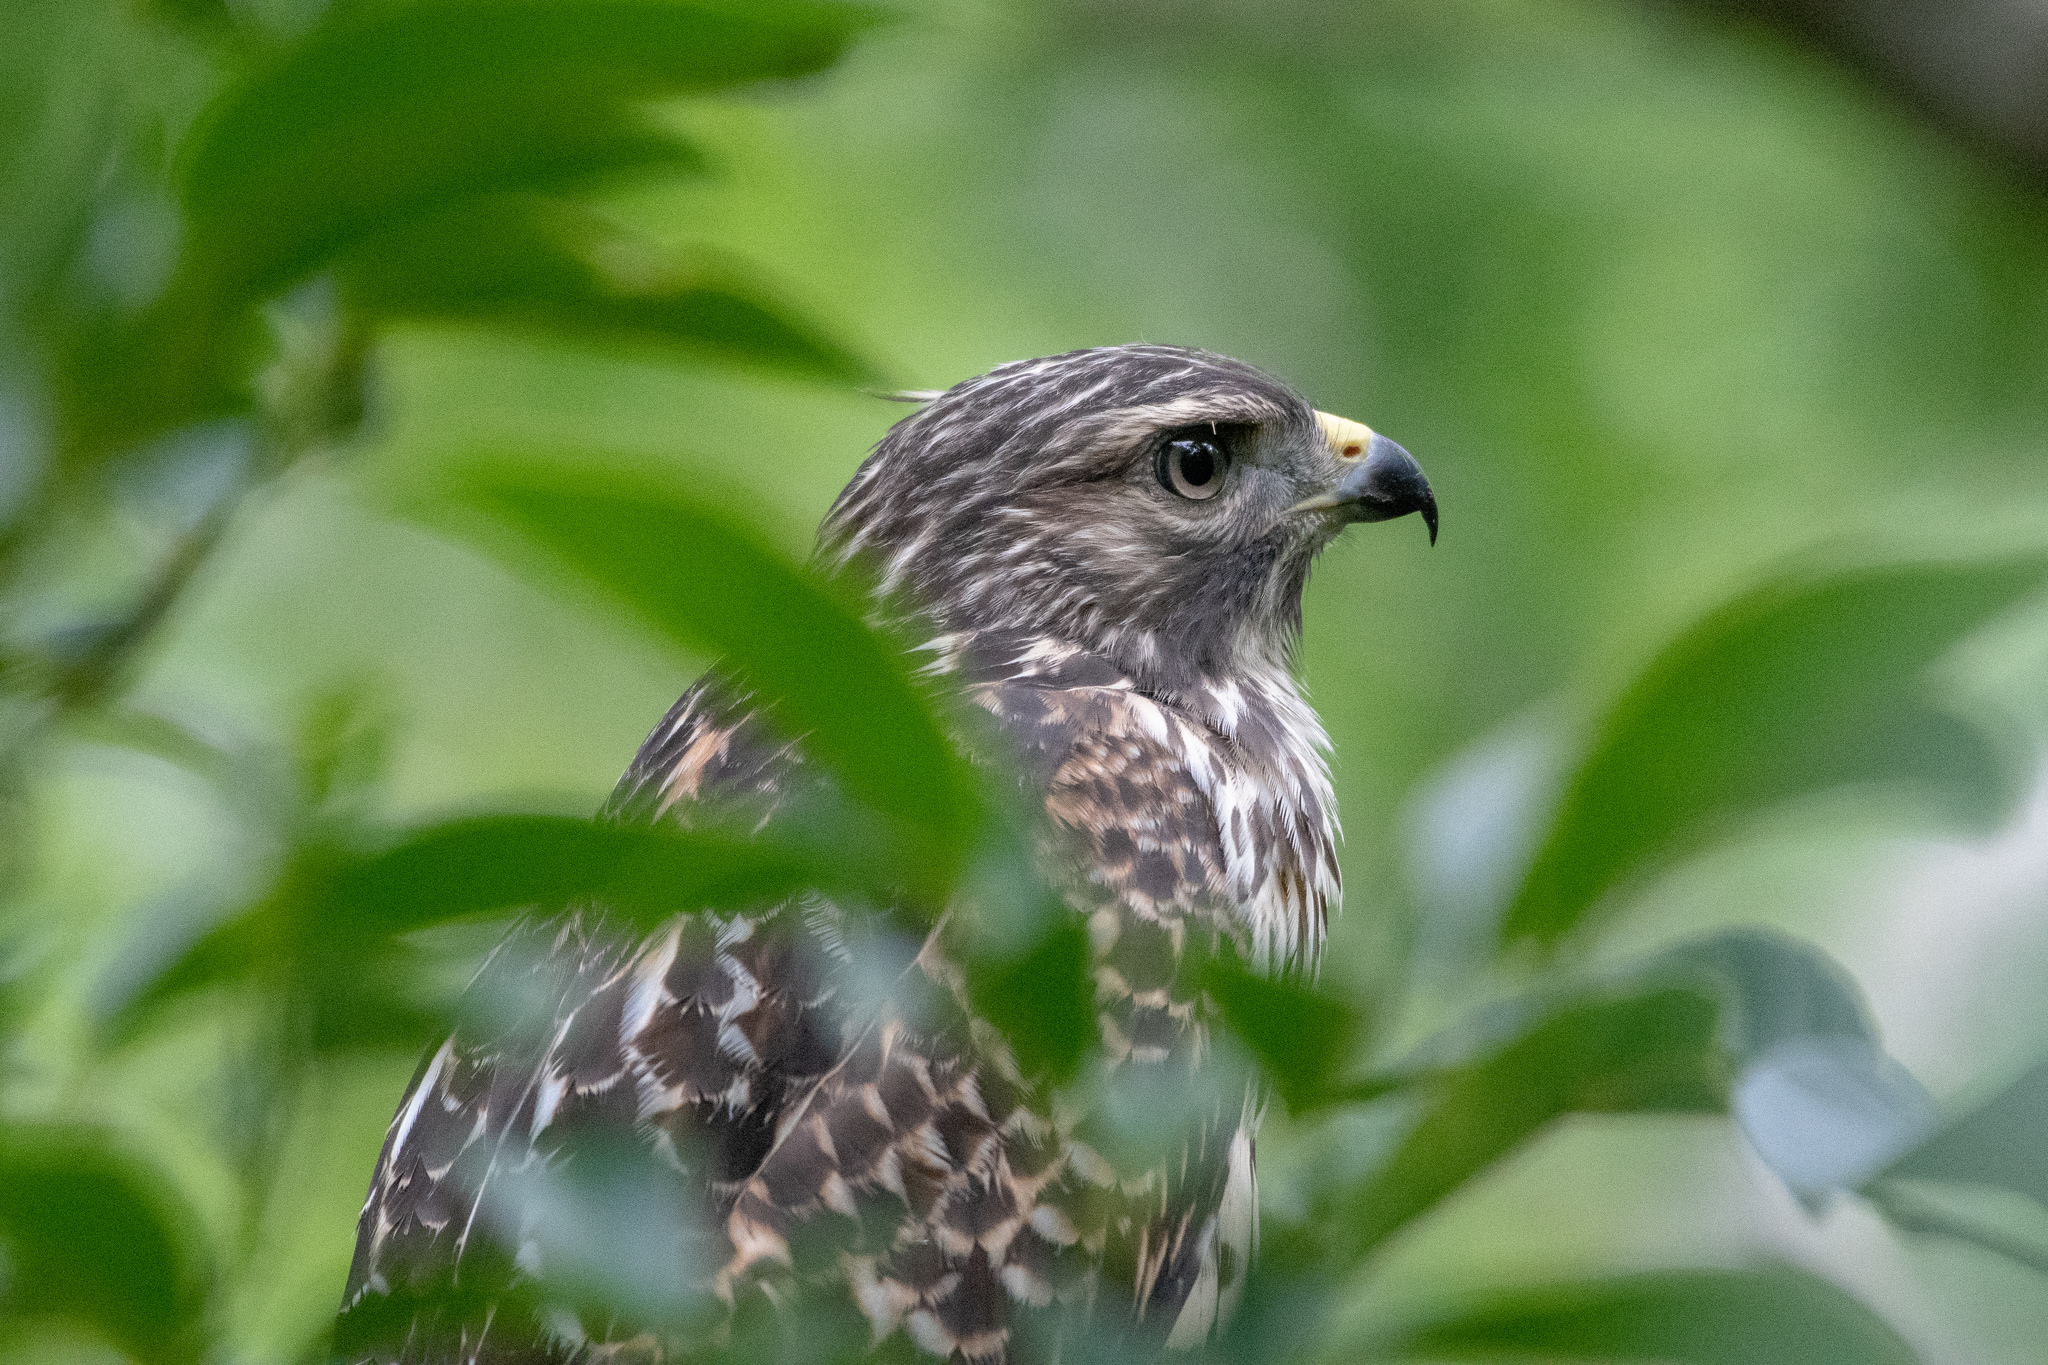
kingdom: Animalia
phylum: Chordata
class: Aves
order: Accipitriformes
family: Accipitridae
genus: Buteo
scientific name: Buteo lineatus
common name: Red-shouldered hawk
